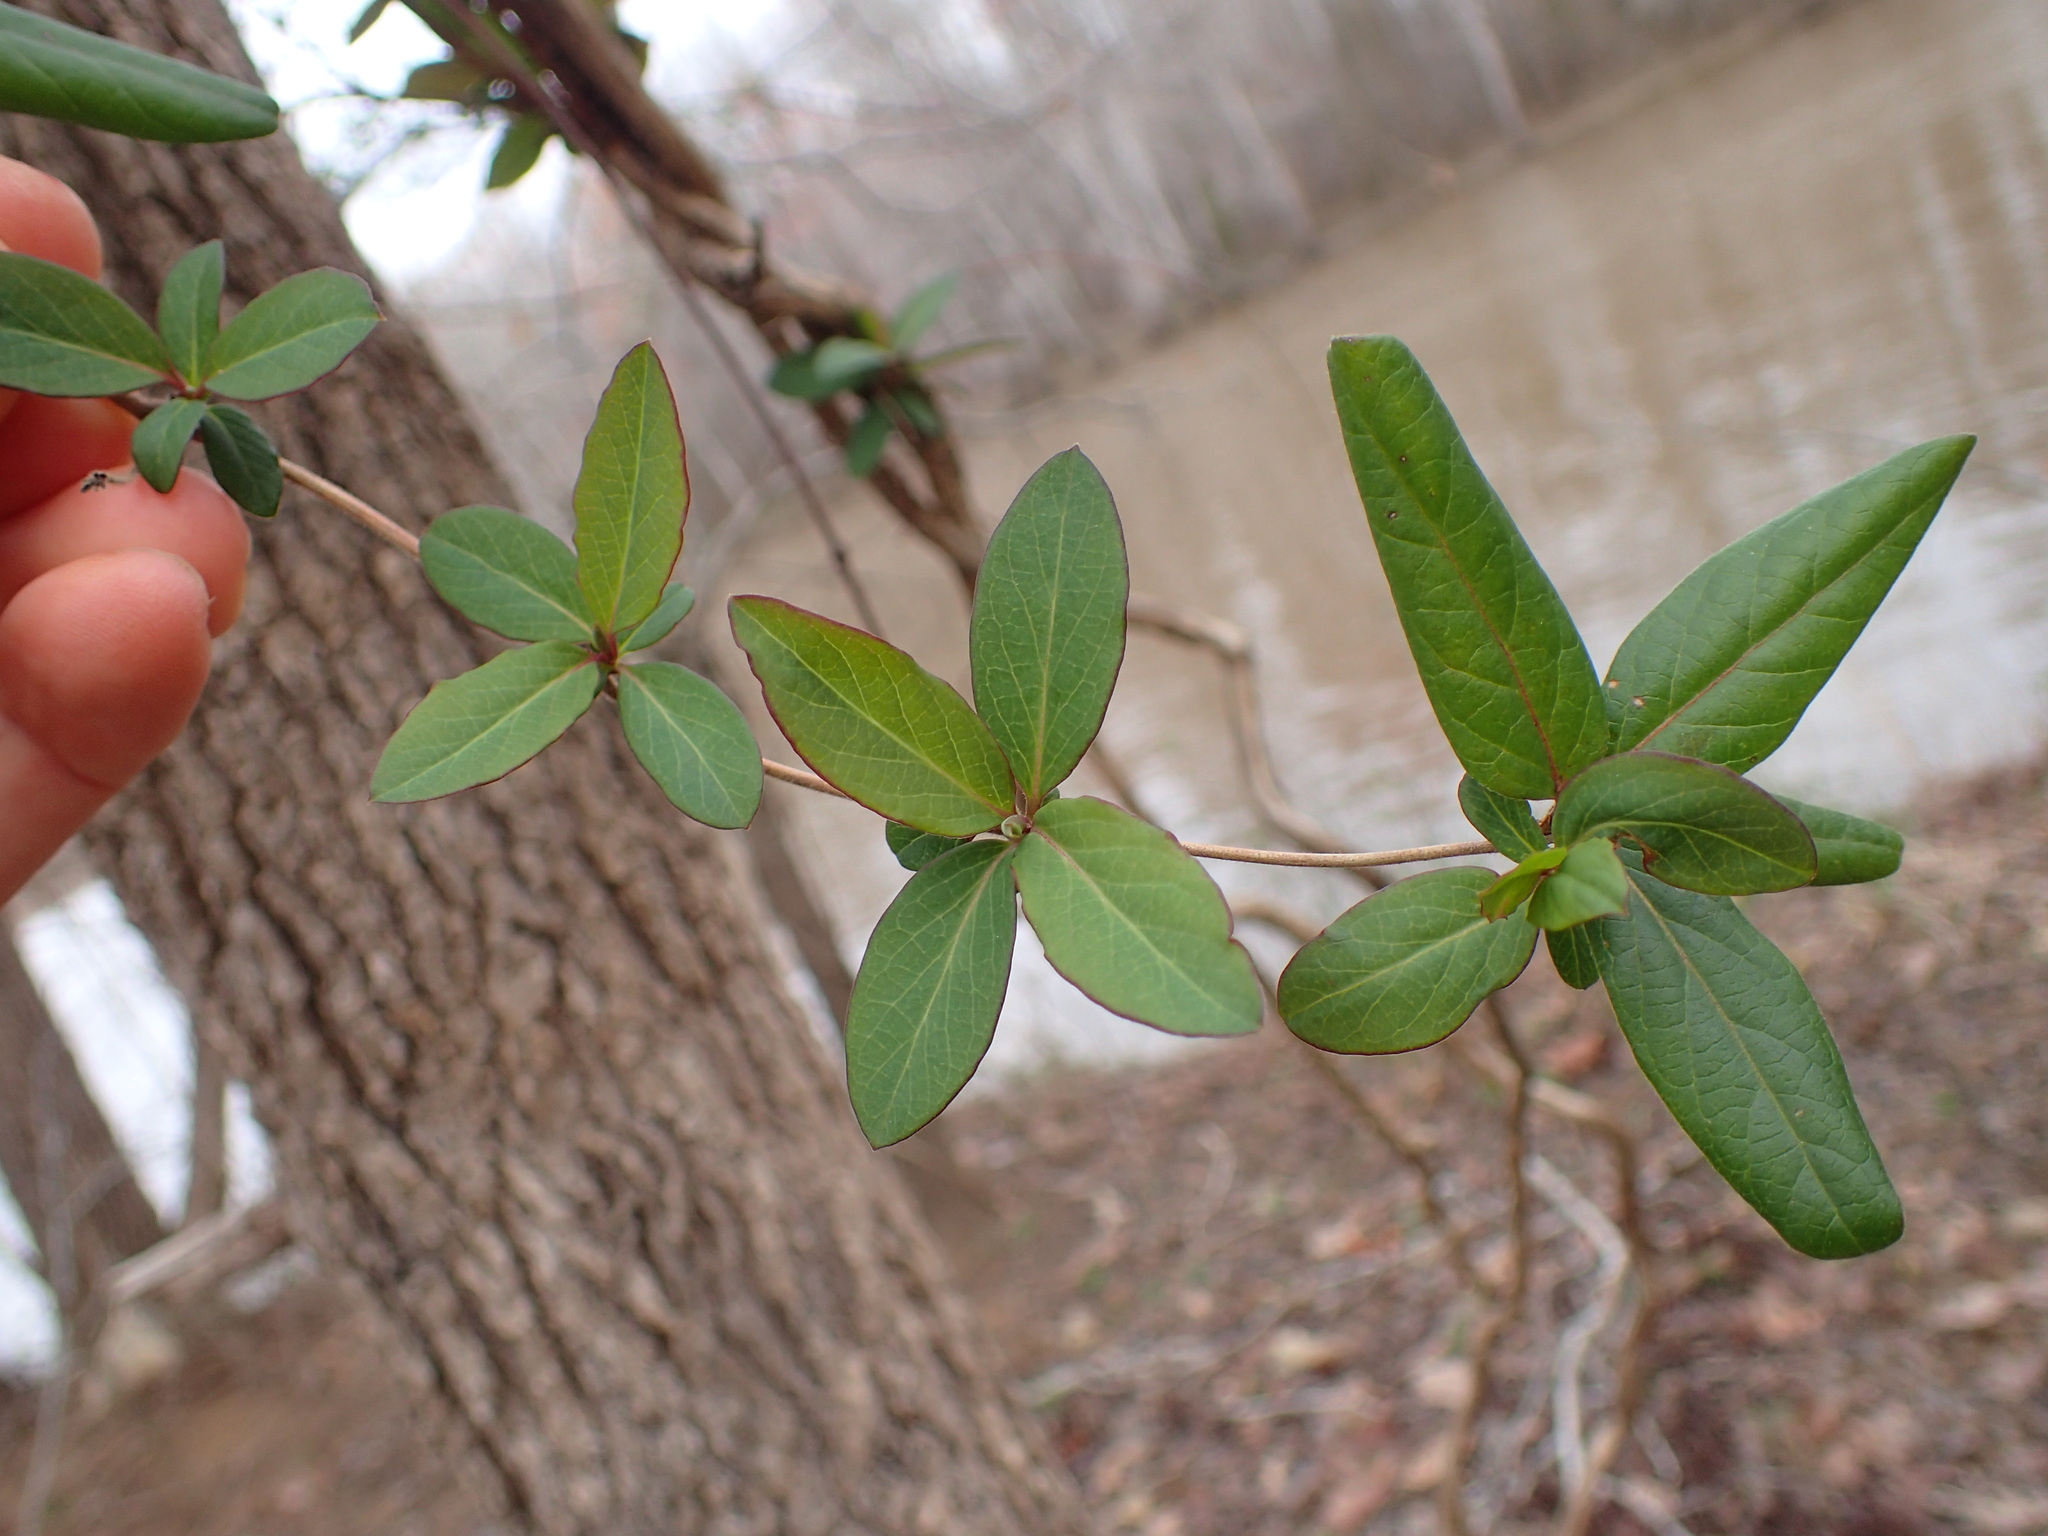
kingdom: Plantae
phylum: Tracheophyta
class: Magnoliopsida
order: Dipsacales
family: Caprifoliaceae
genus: Lonicera
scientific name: Lonicera japonica
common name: Japanese honeysuckle
